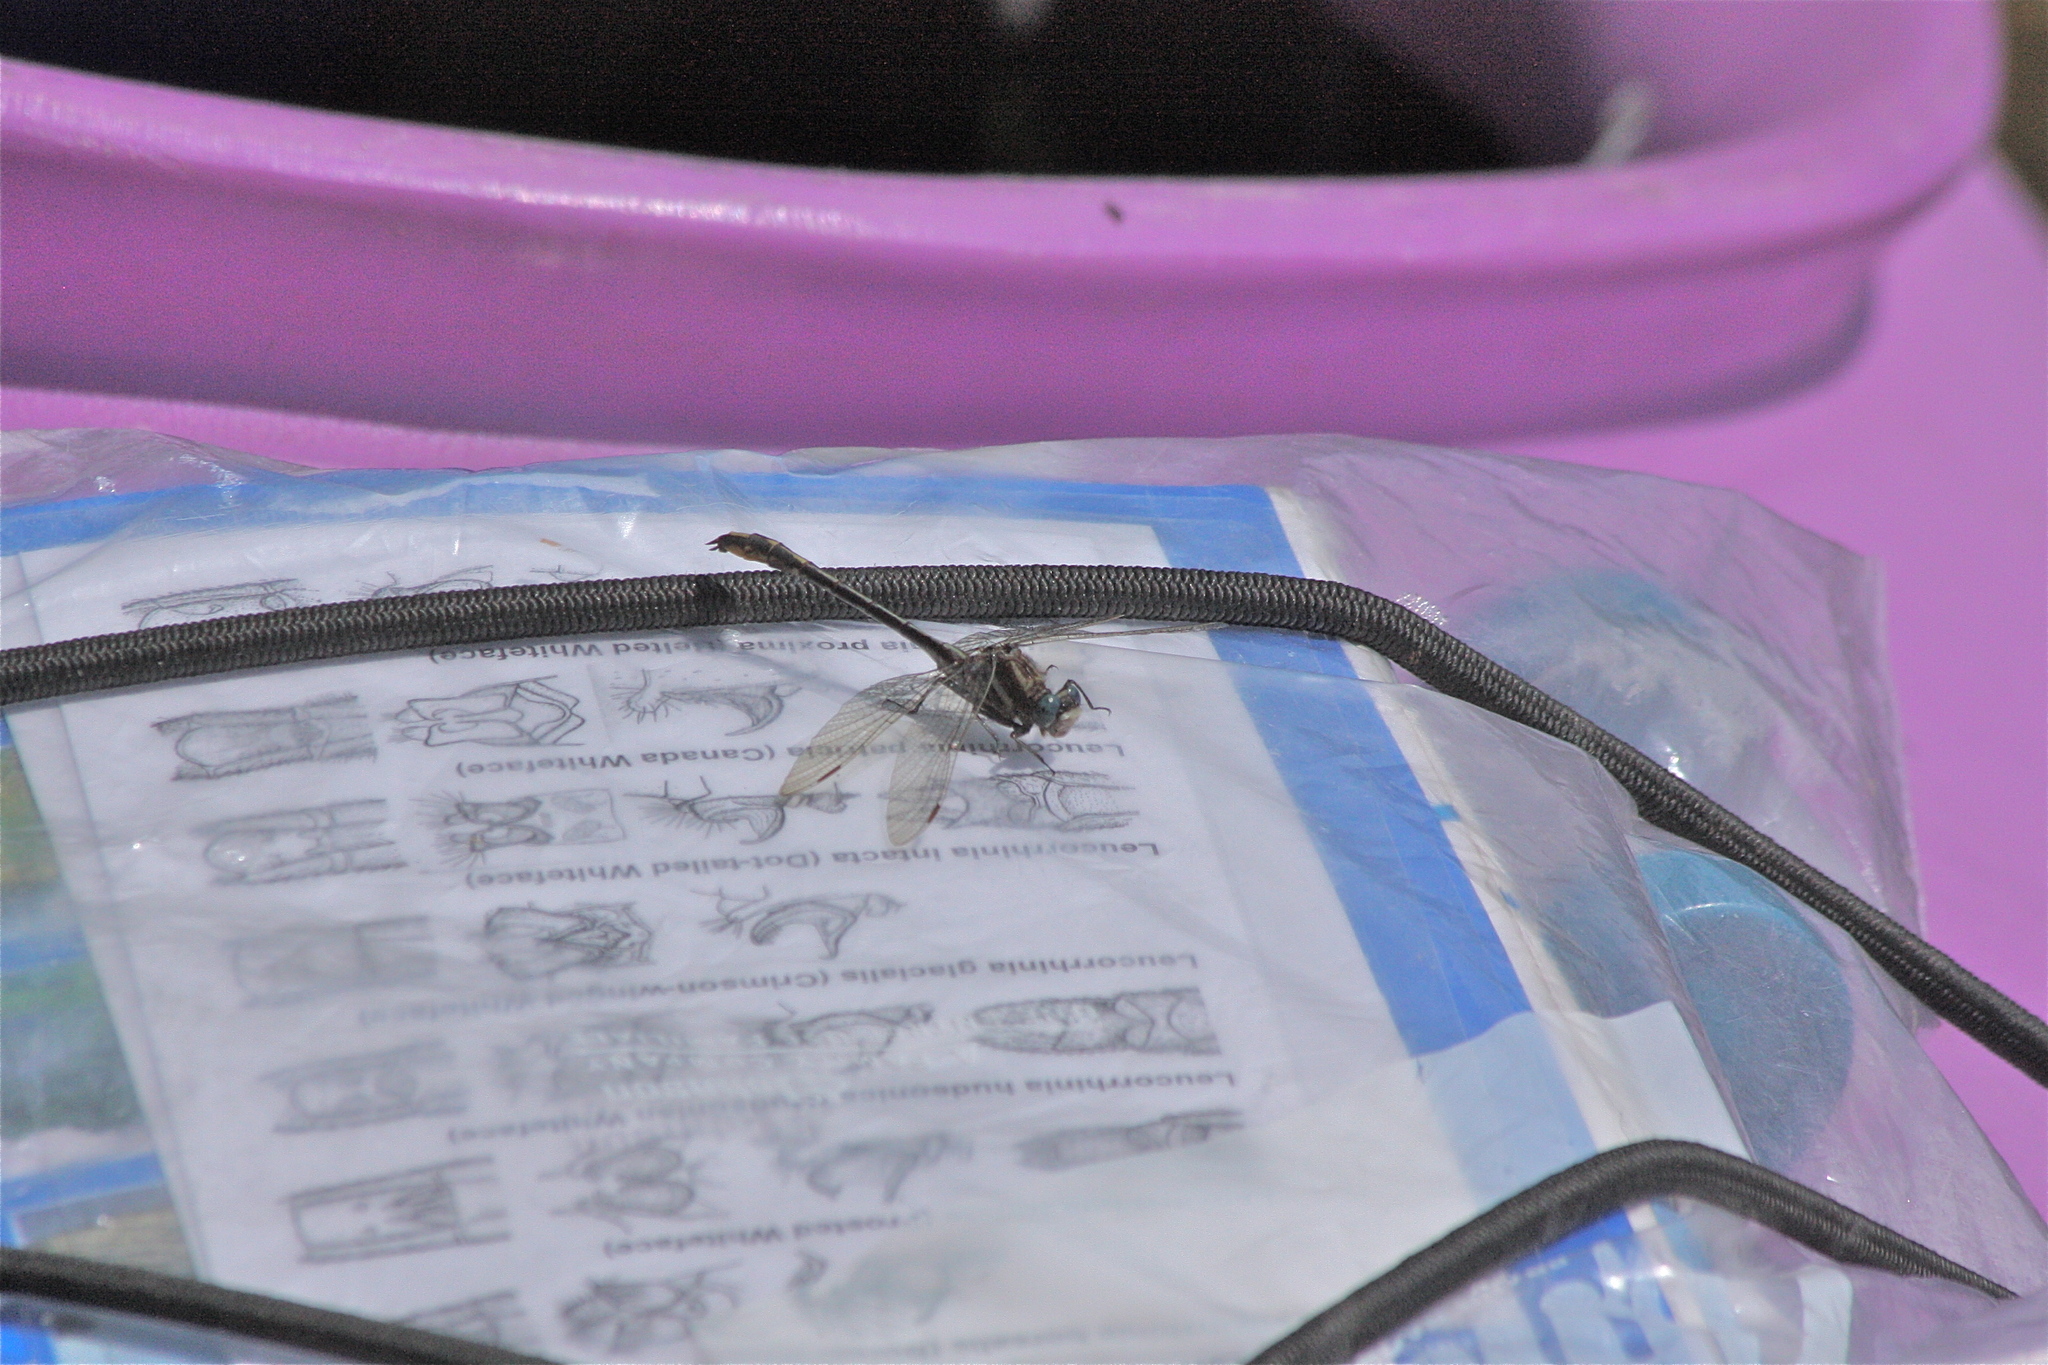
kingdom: Animalia
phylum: Arthropoda
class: Insecta
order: Odonata
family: Gomphidae
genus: Phanogomphus
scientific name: Phanogomphus exilis
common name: Lancet clubtail
